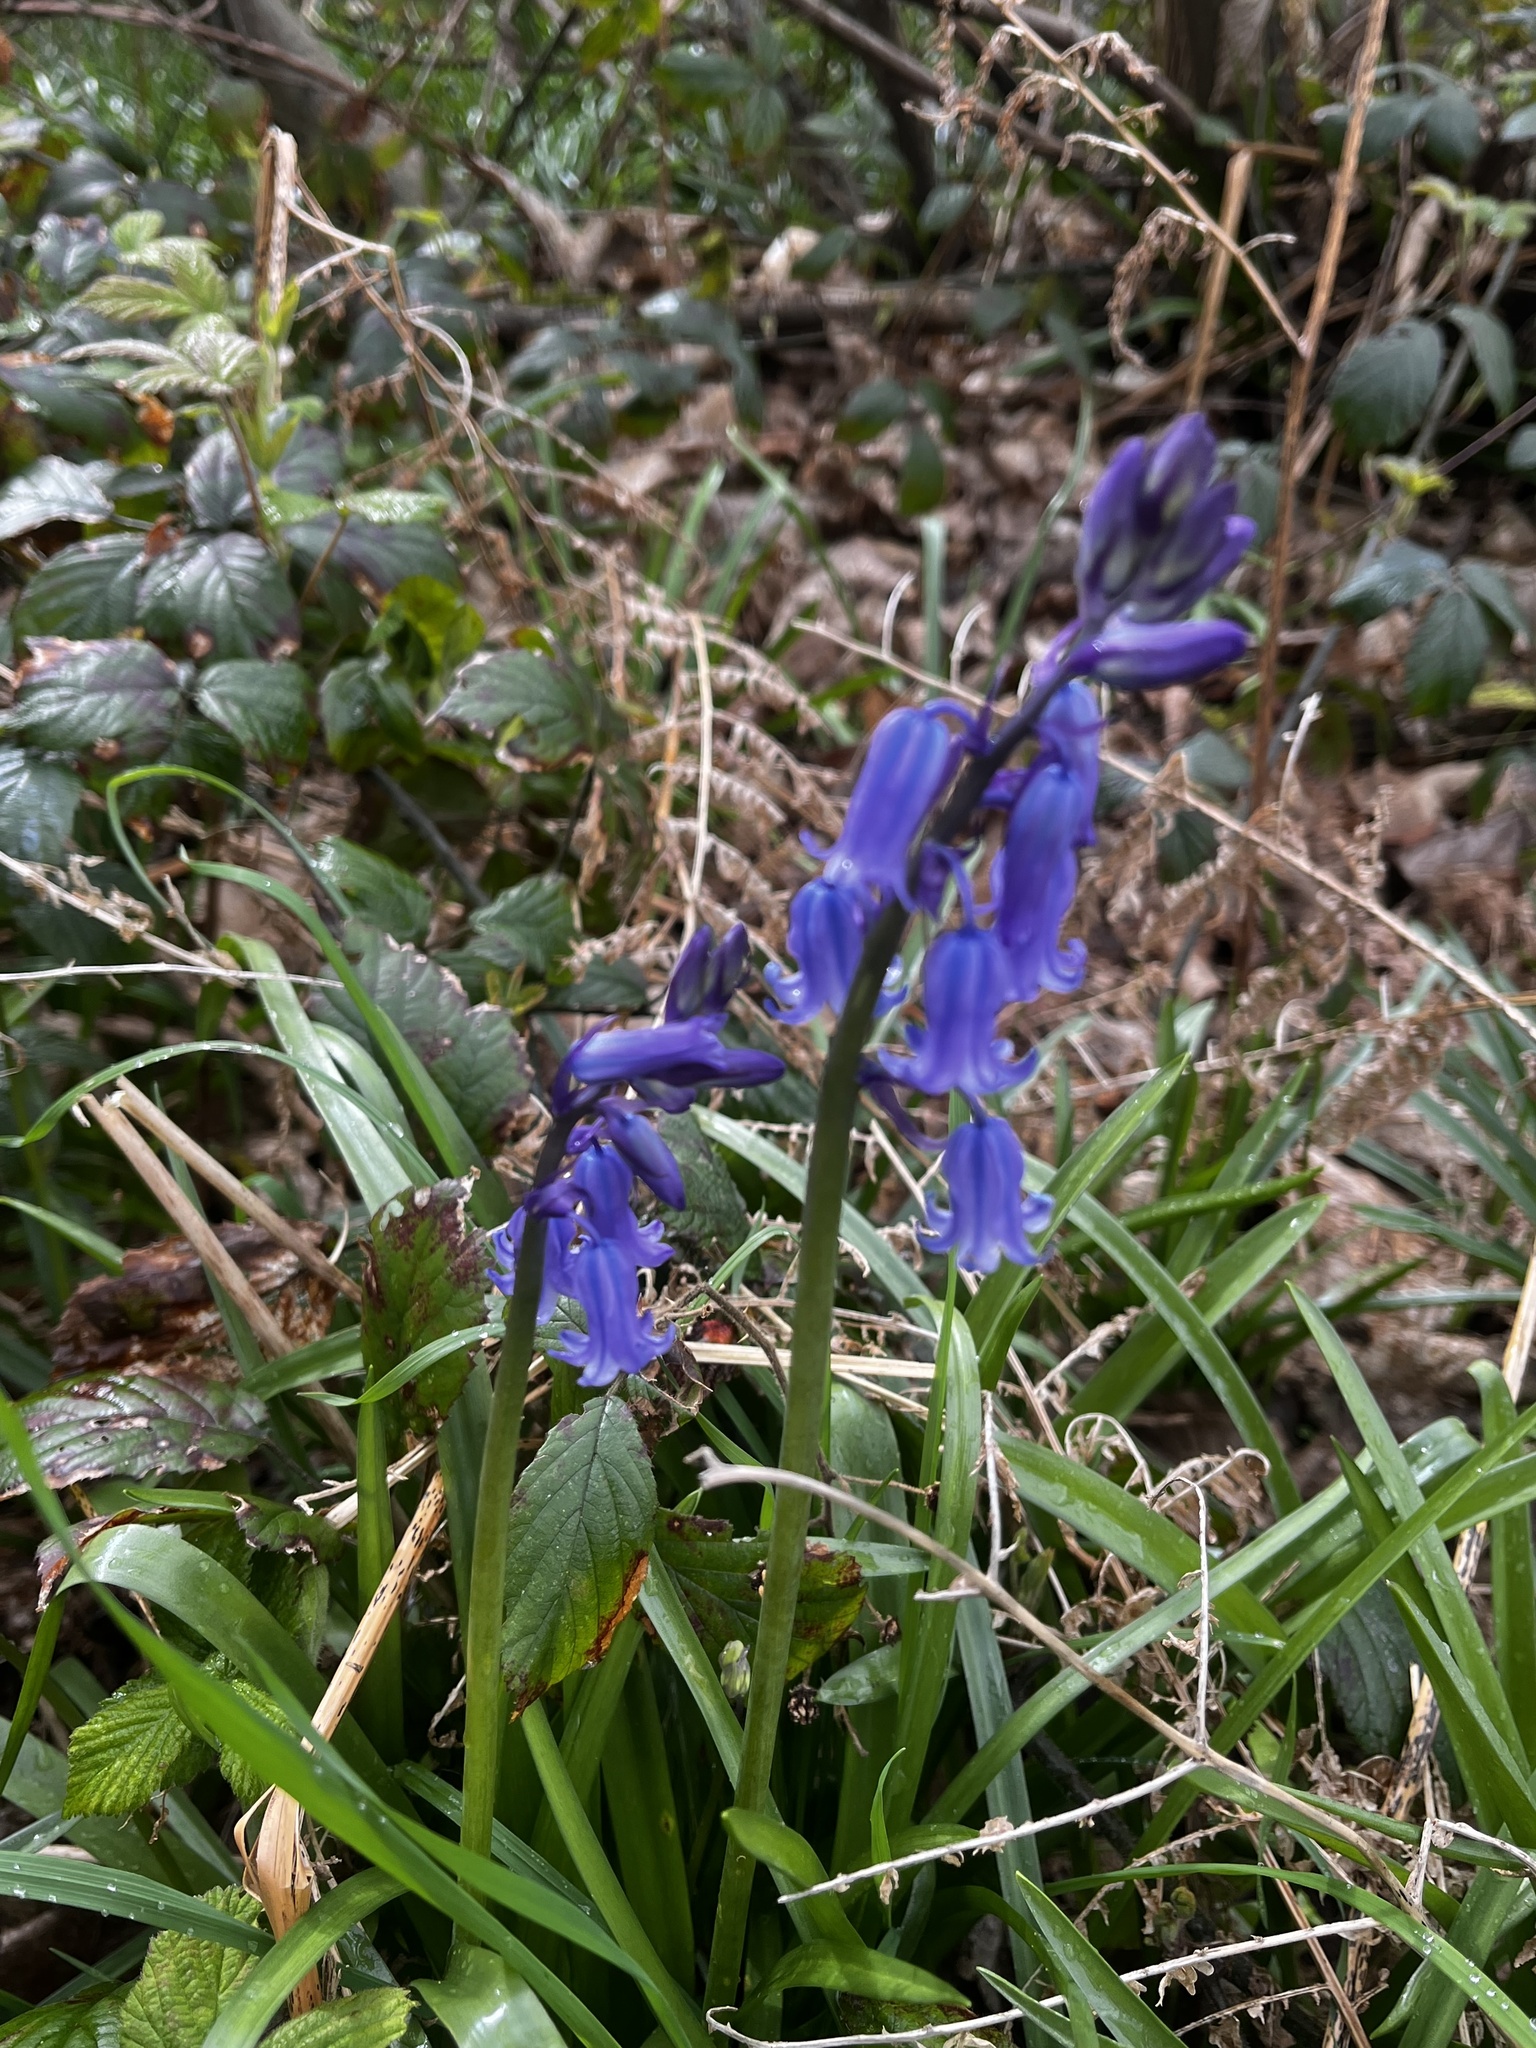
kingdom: Plantae
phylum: Tracheophyta
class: Liliopsida
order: Asparagales
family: Asparagaceae
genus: Hyacinthoides
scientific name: Hyacinthoides non-scripta
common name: Bluebell
